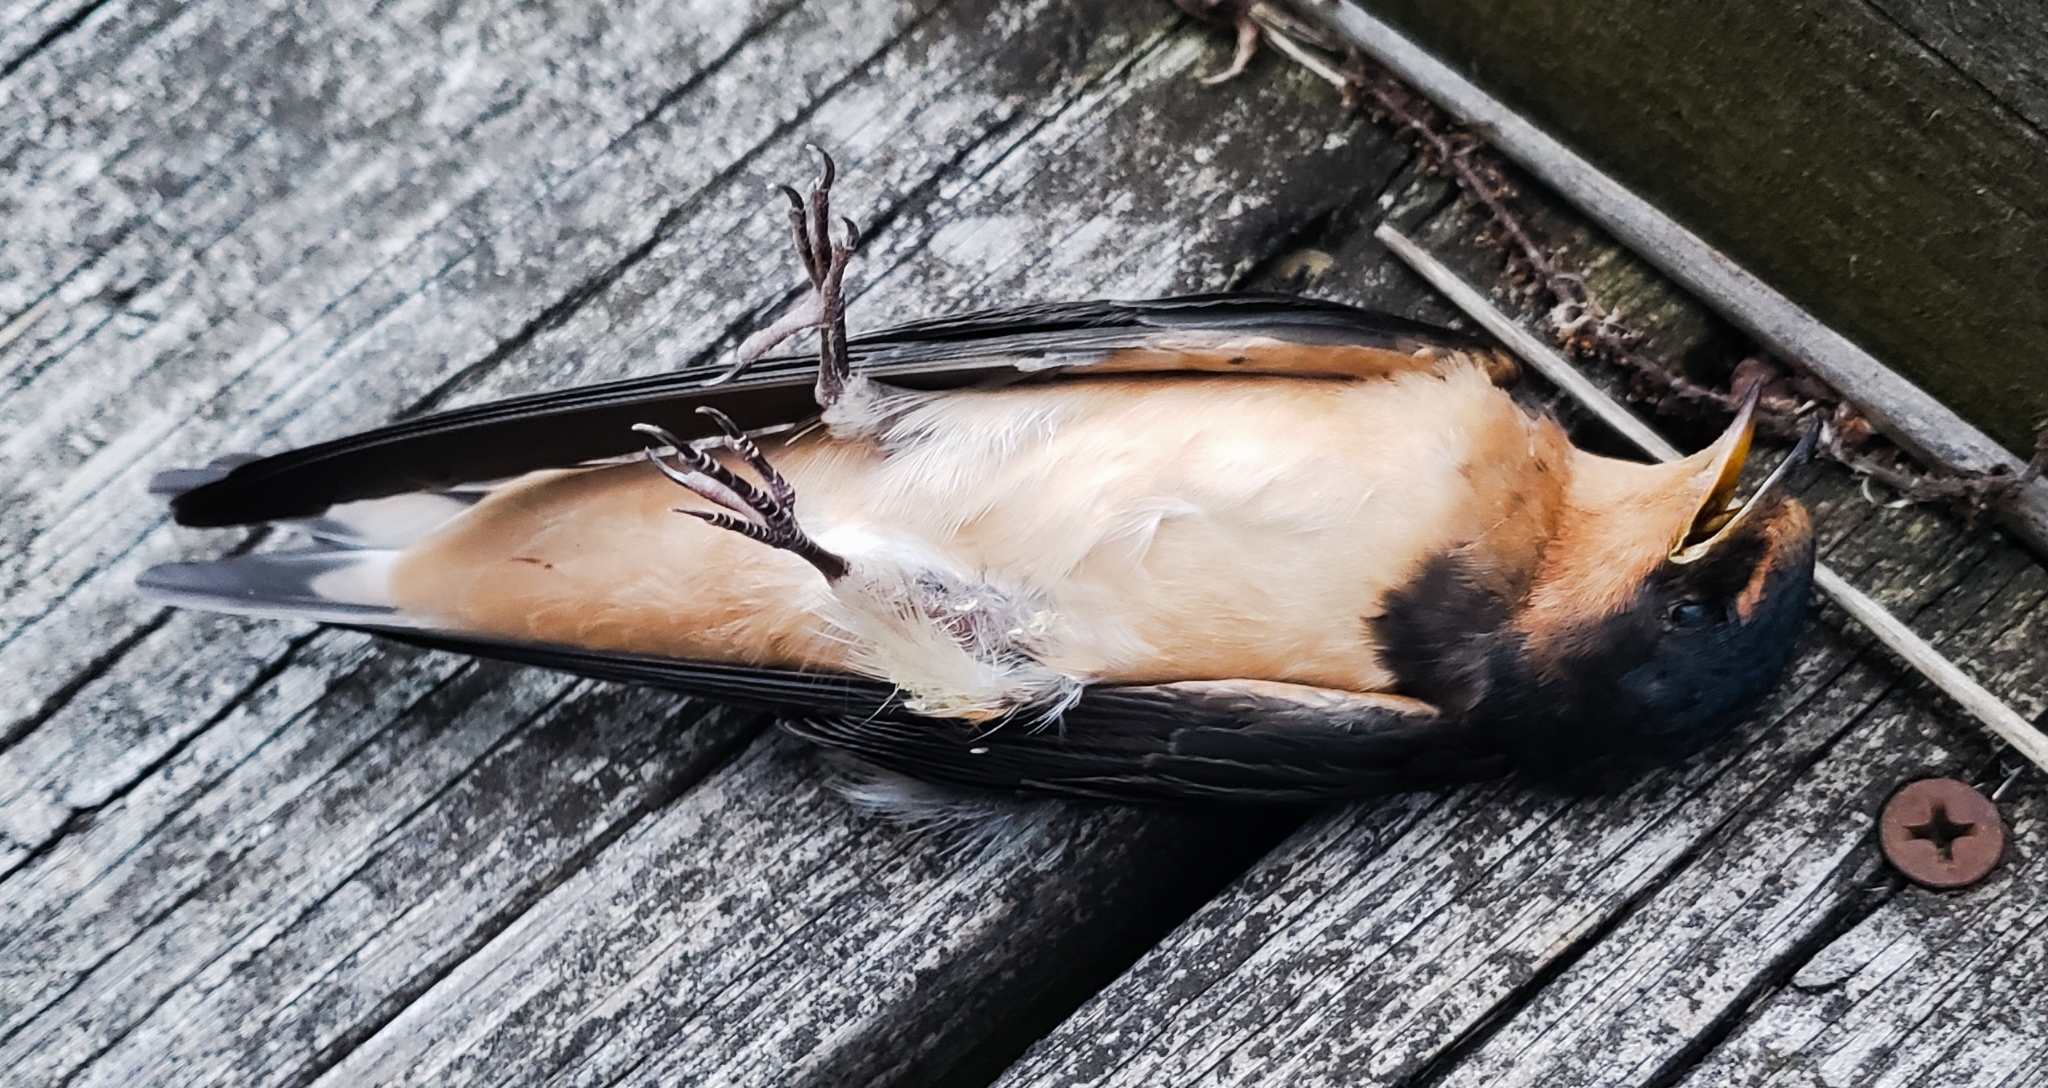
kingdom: Animalia
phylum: Chordata
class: Aves
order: Passeriformes
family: Hirundinidae
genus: Hirundo
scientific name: Hirundo rustica
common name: Barn swallow
